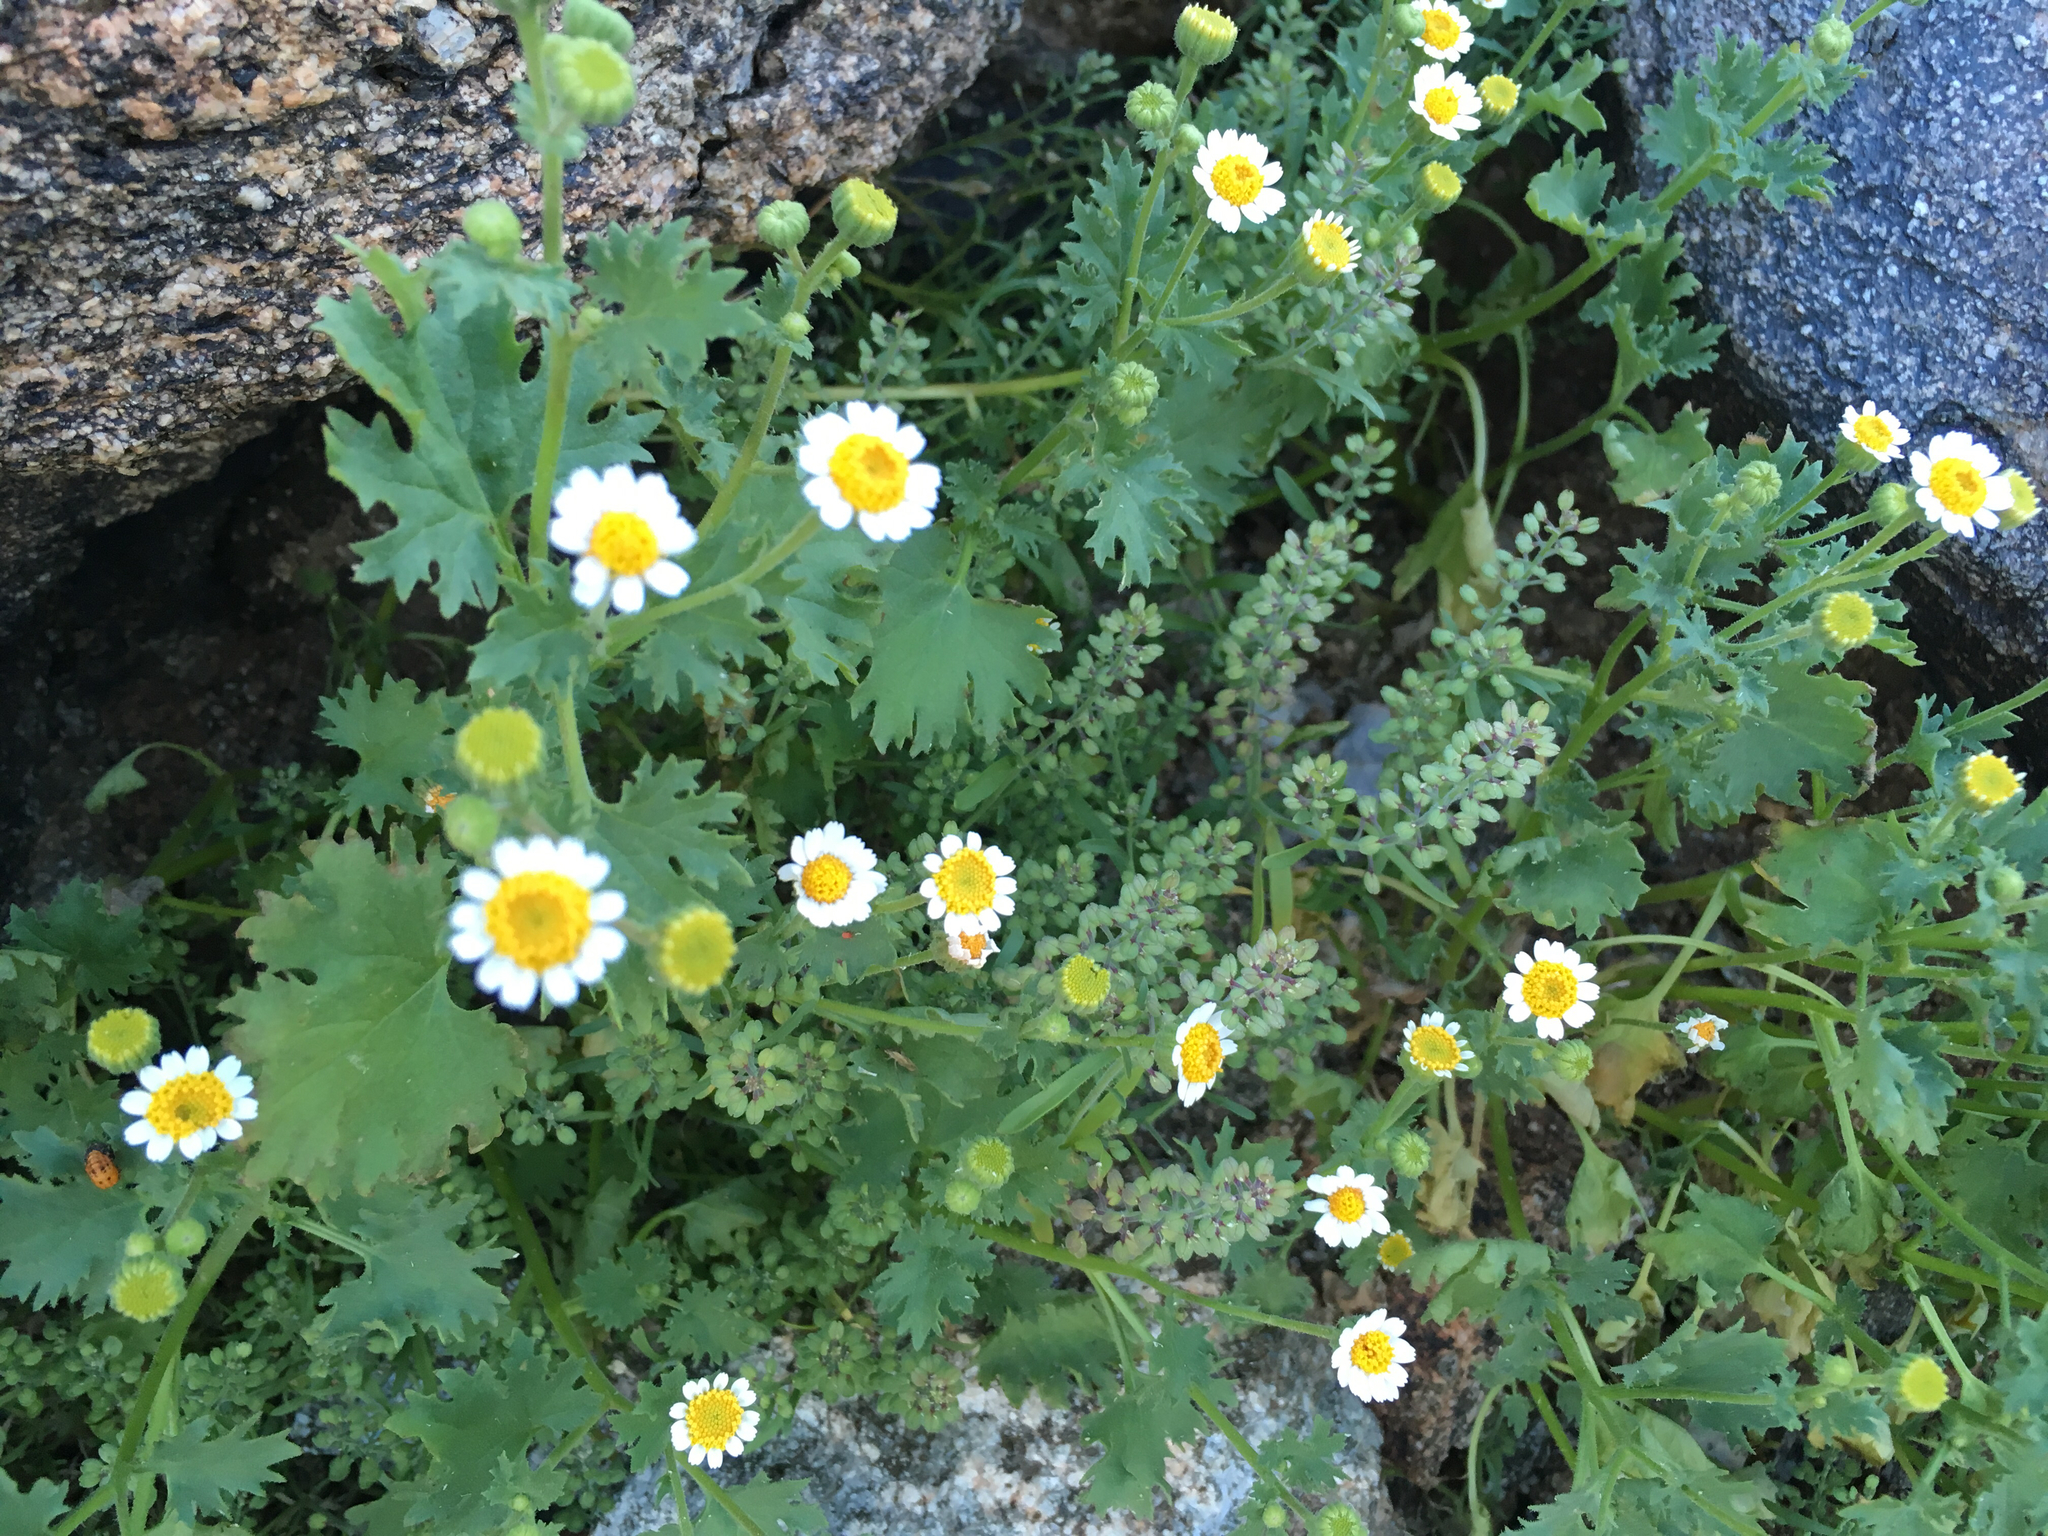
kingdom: Plantae
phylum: Tracheophyta
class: Magnoliopsida
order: Asterales
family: Asteraceae
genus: Laphamia
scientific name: Laphamia emoryi
